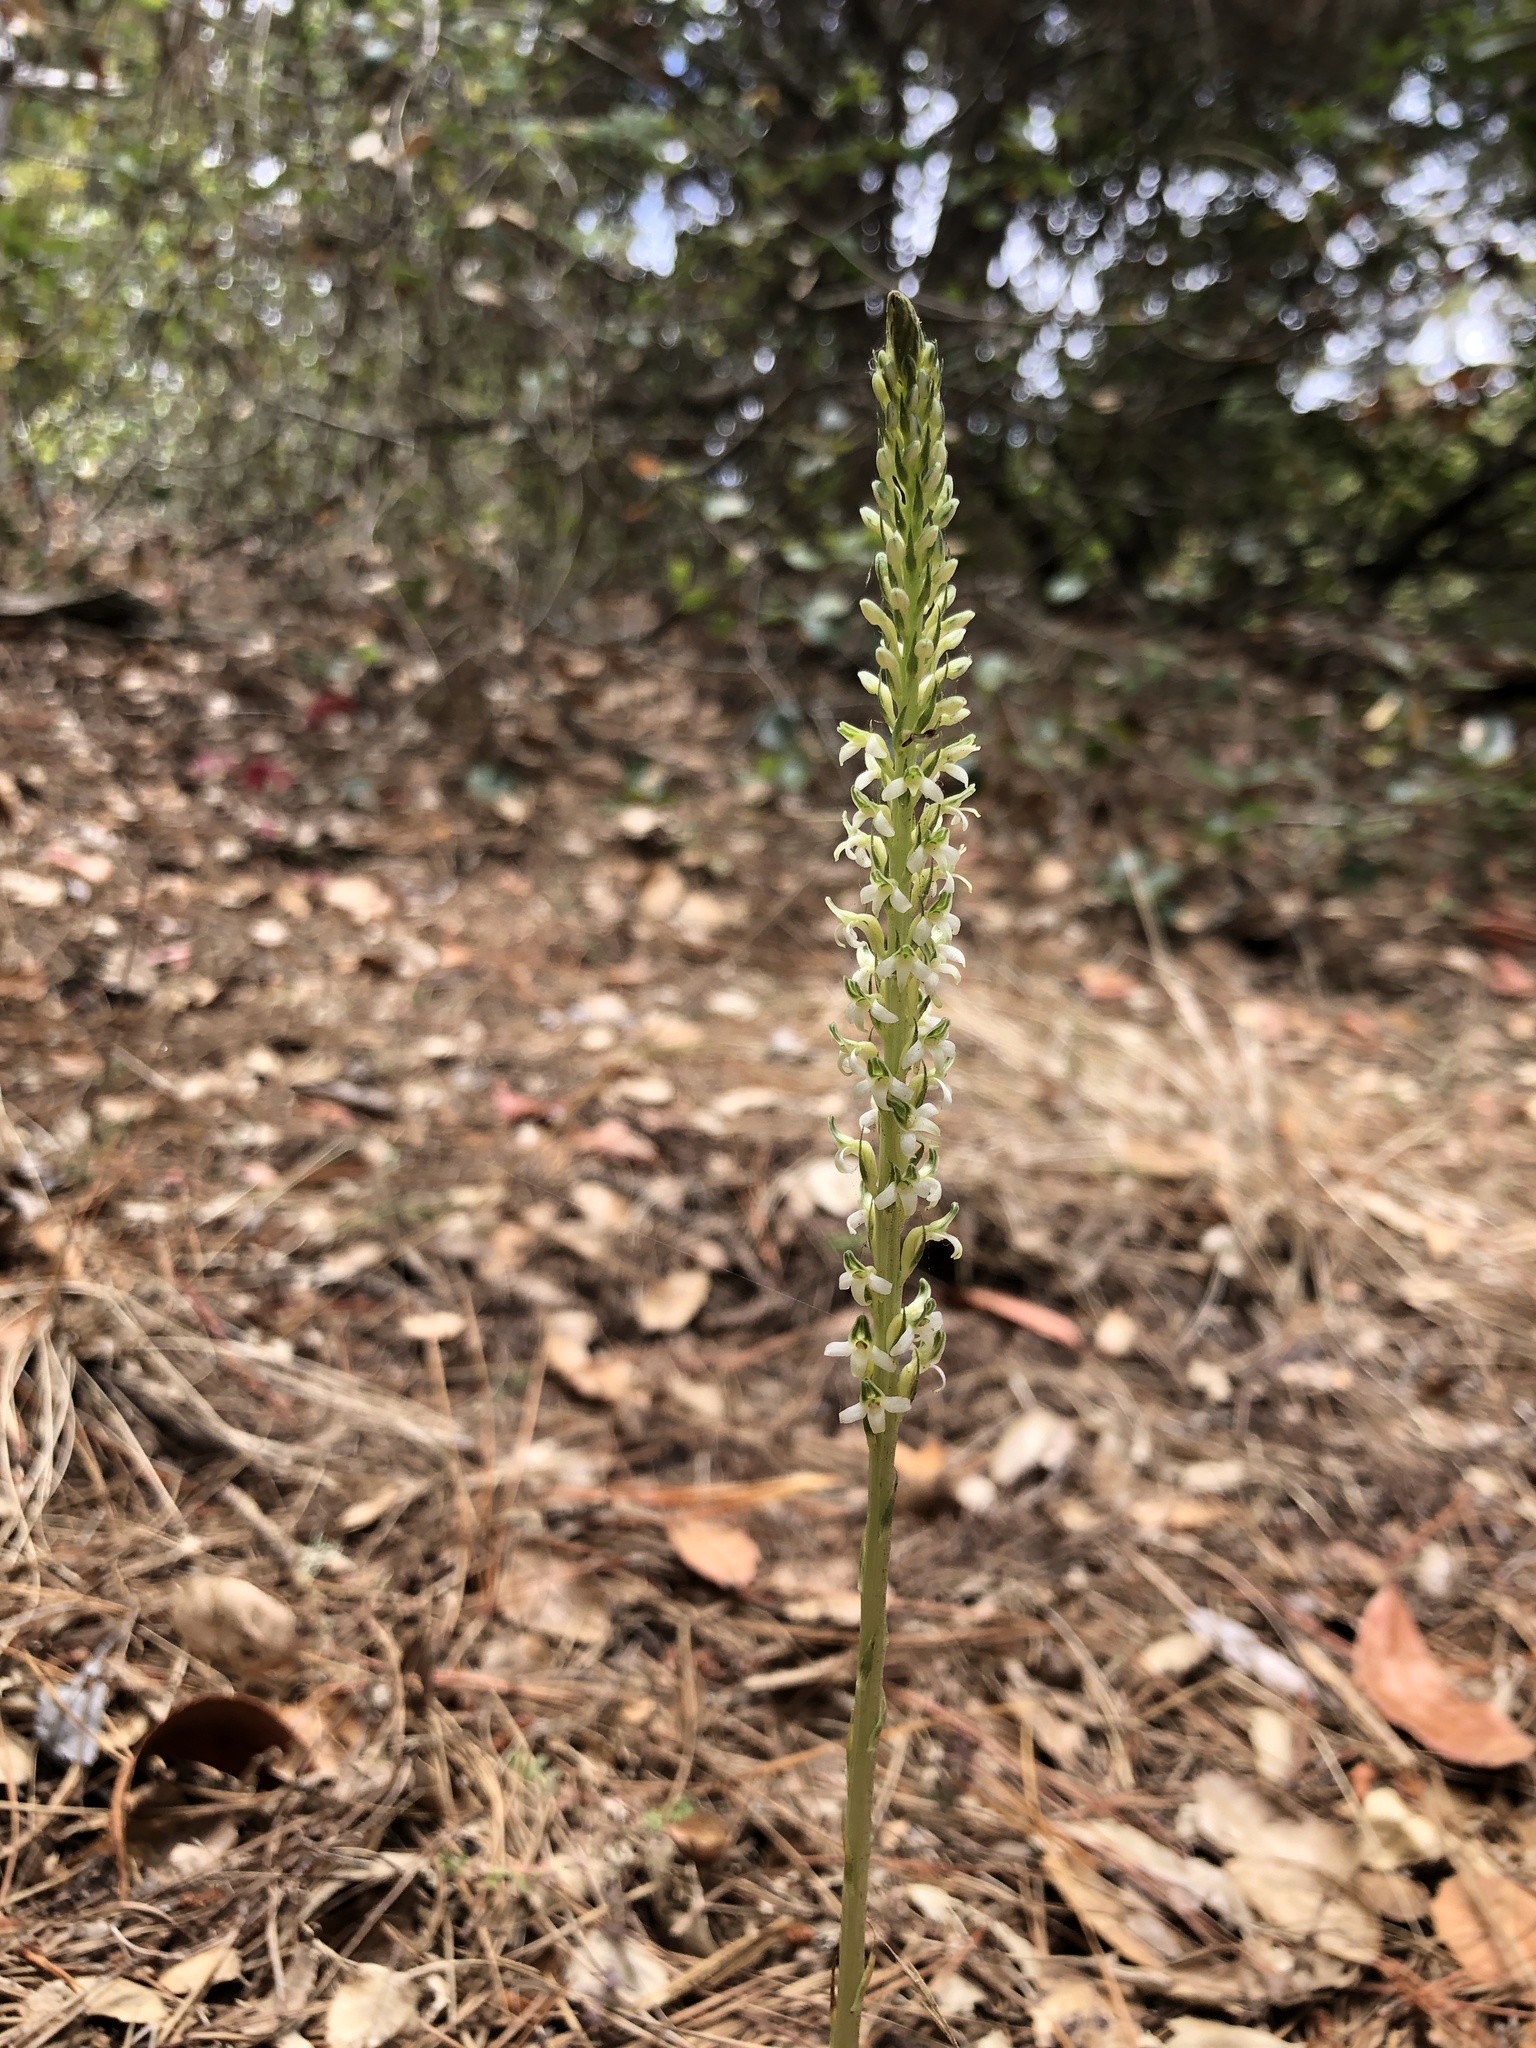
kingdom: Plantae
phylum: Tracheophyta
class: Liliopsida
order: Asparagales
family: Orchidaceae
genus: Platanthera
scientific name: Platanthera yadonii
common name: Yadon’s piperia
